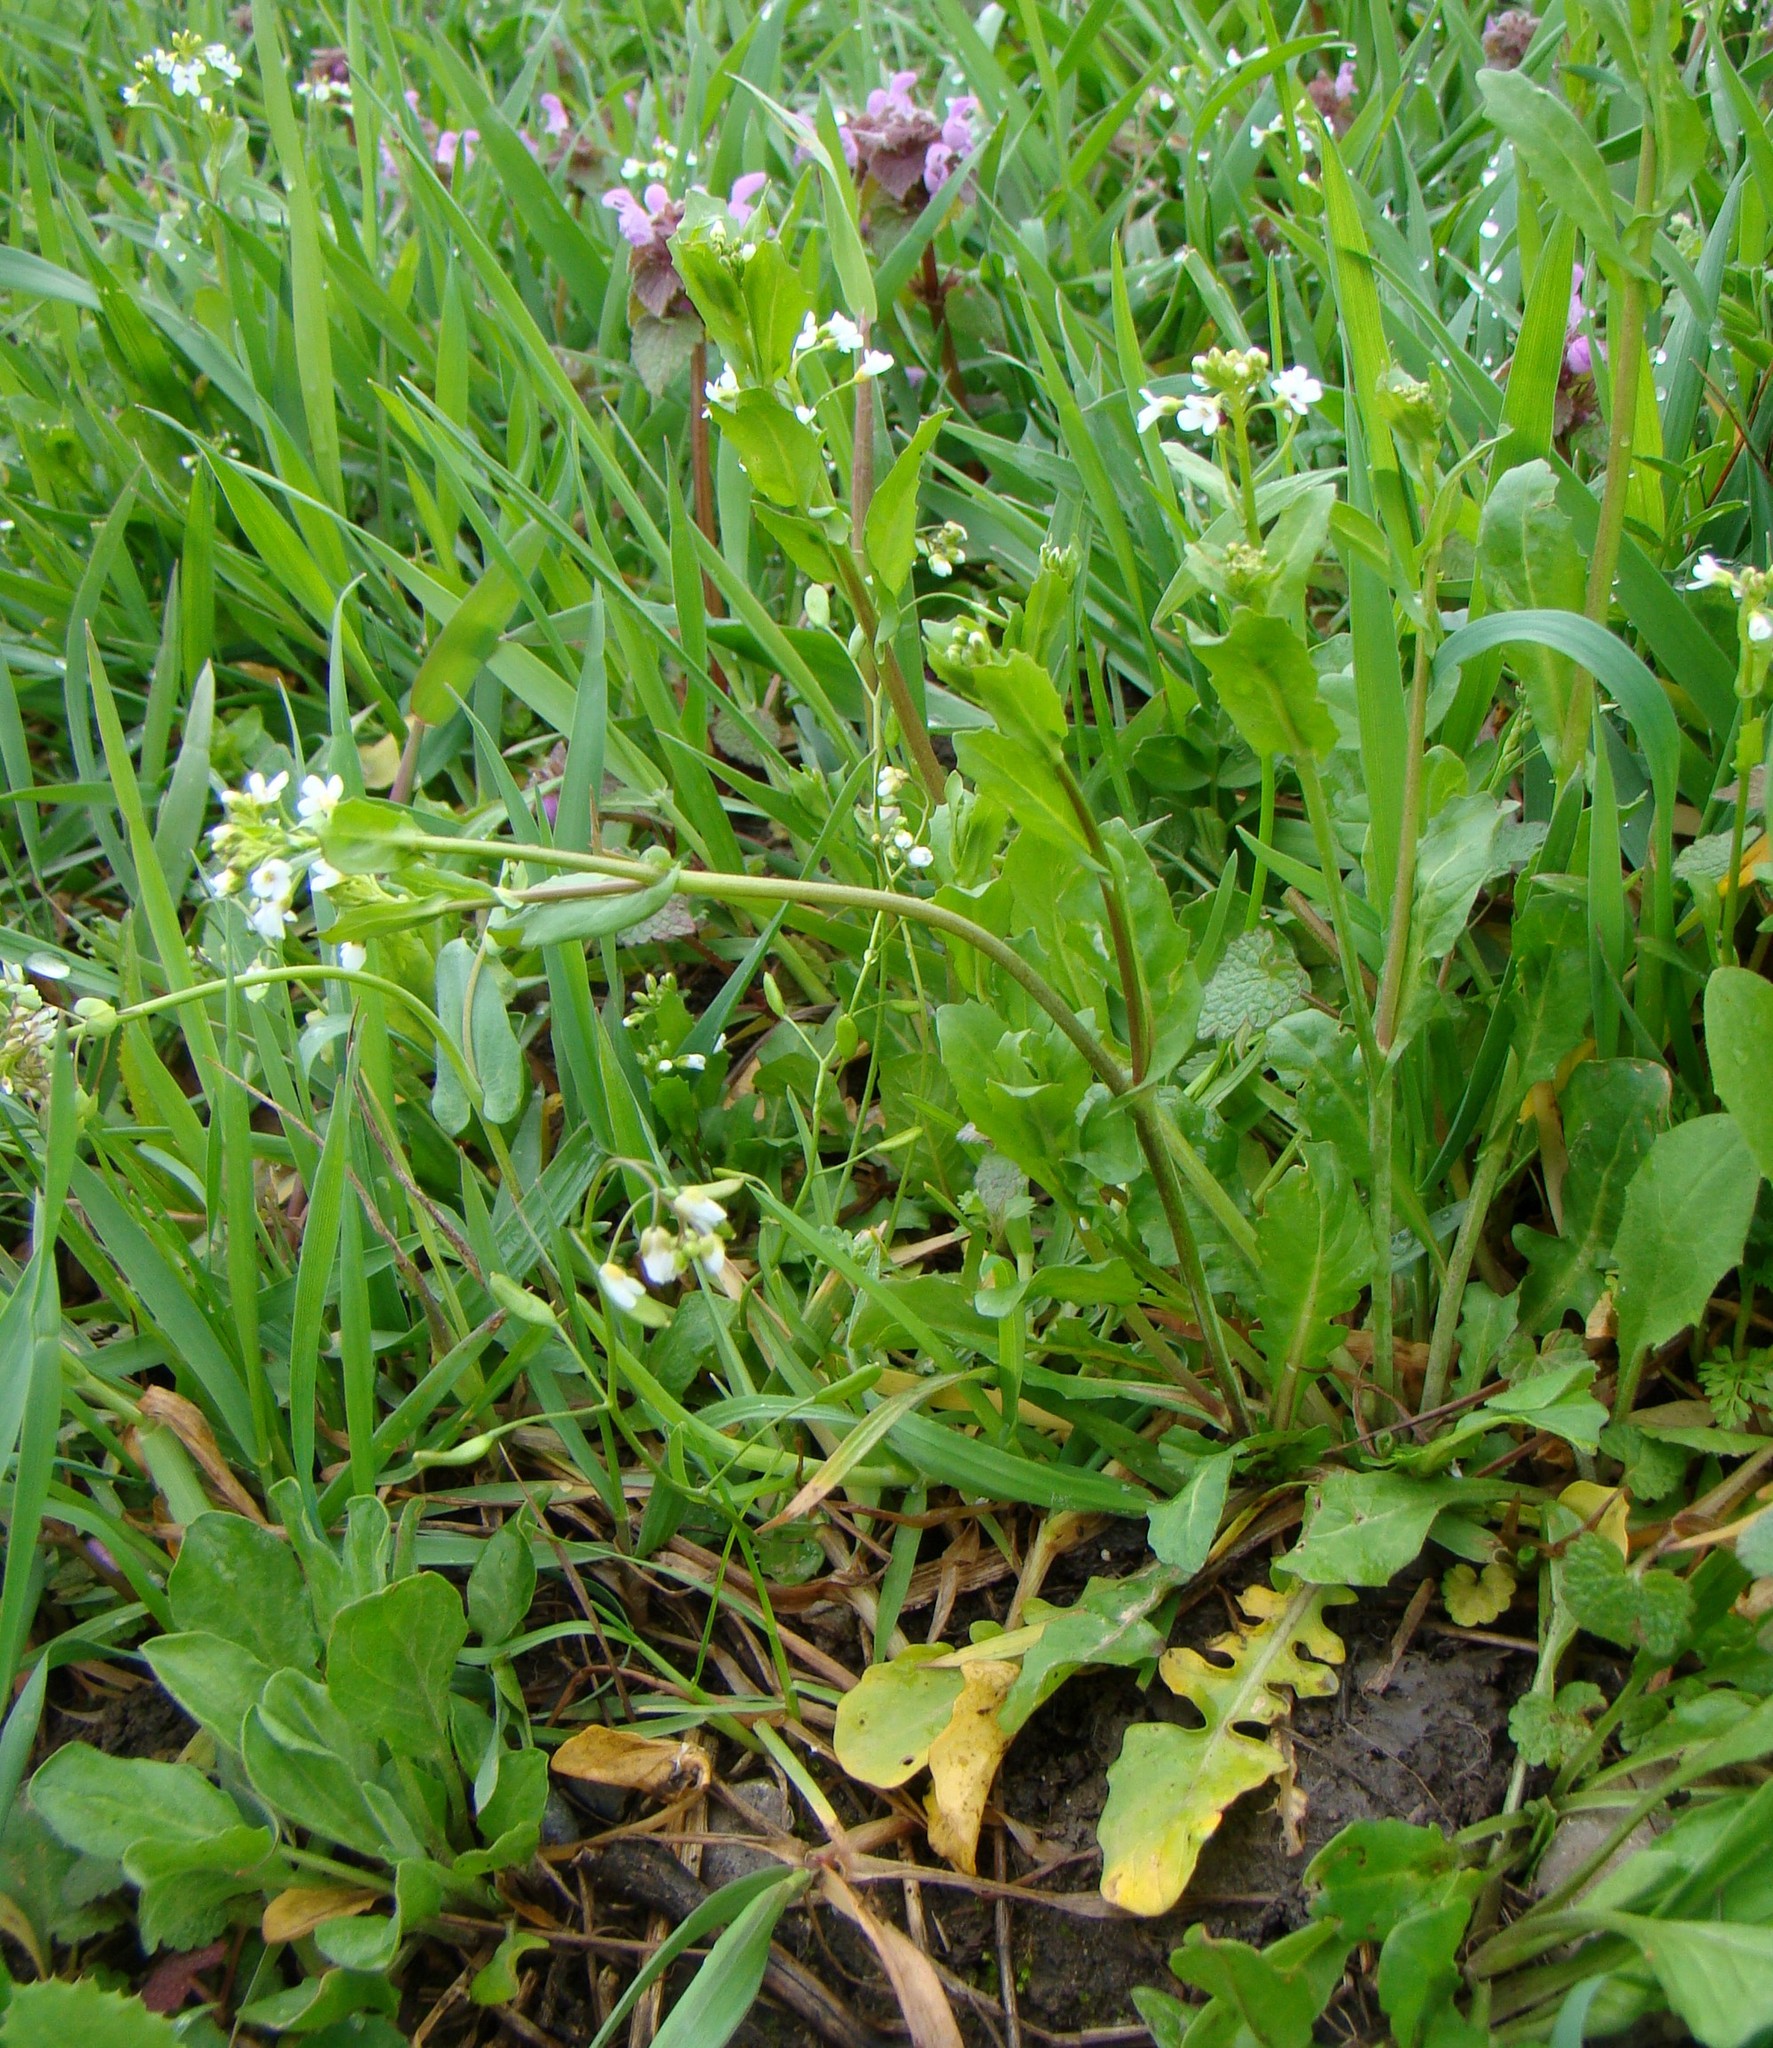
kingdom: Plantae
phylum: Tracheophyta
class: Magnoliopsida
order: Brassicales
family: Brassicaceae
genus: Calepina
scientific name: Calepina irregularis
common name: White ballmustard
